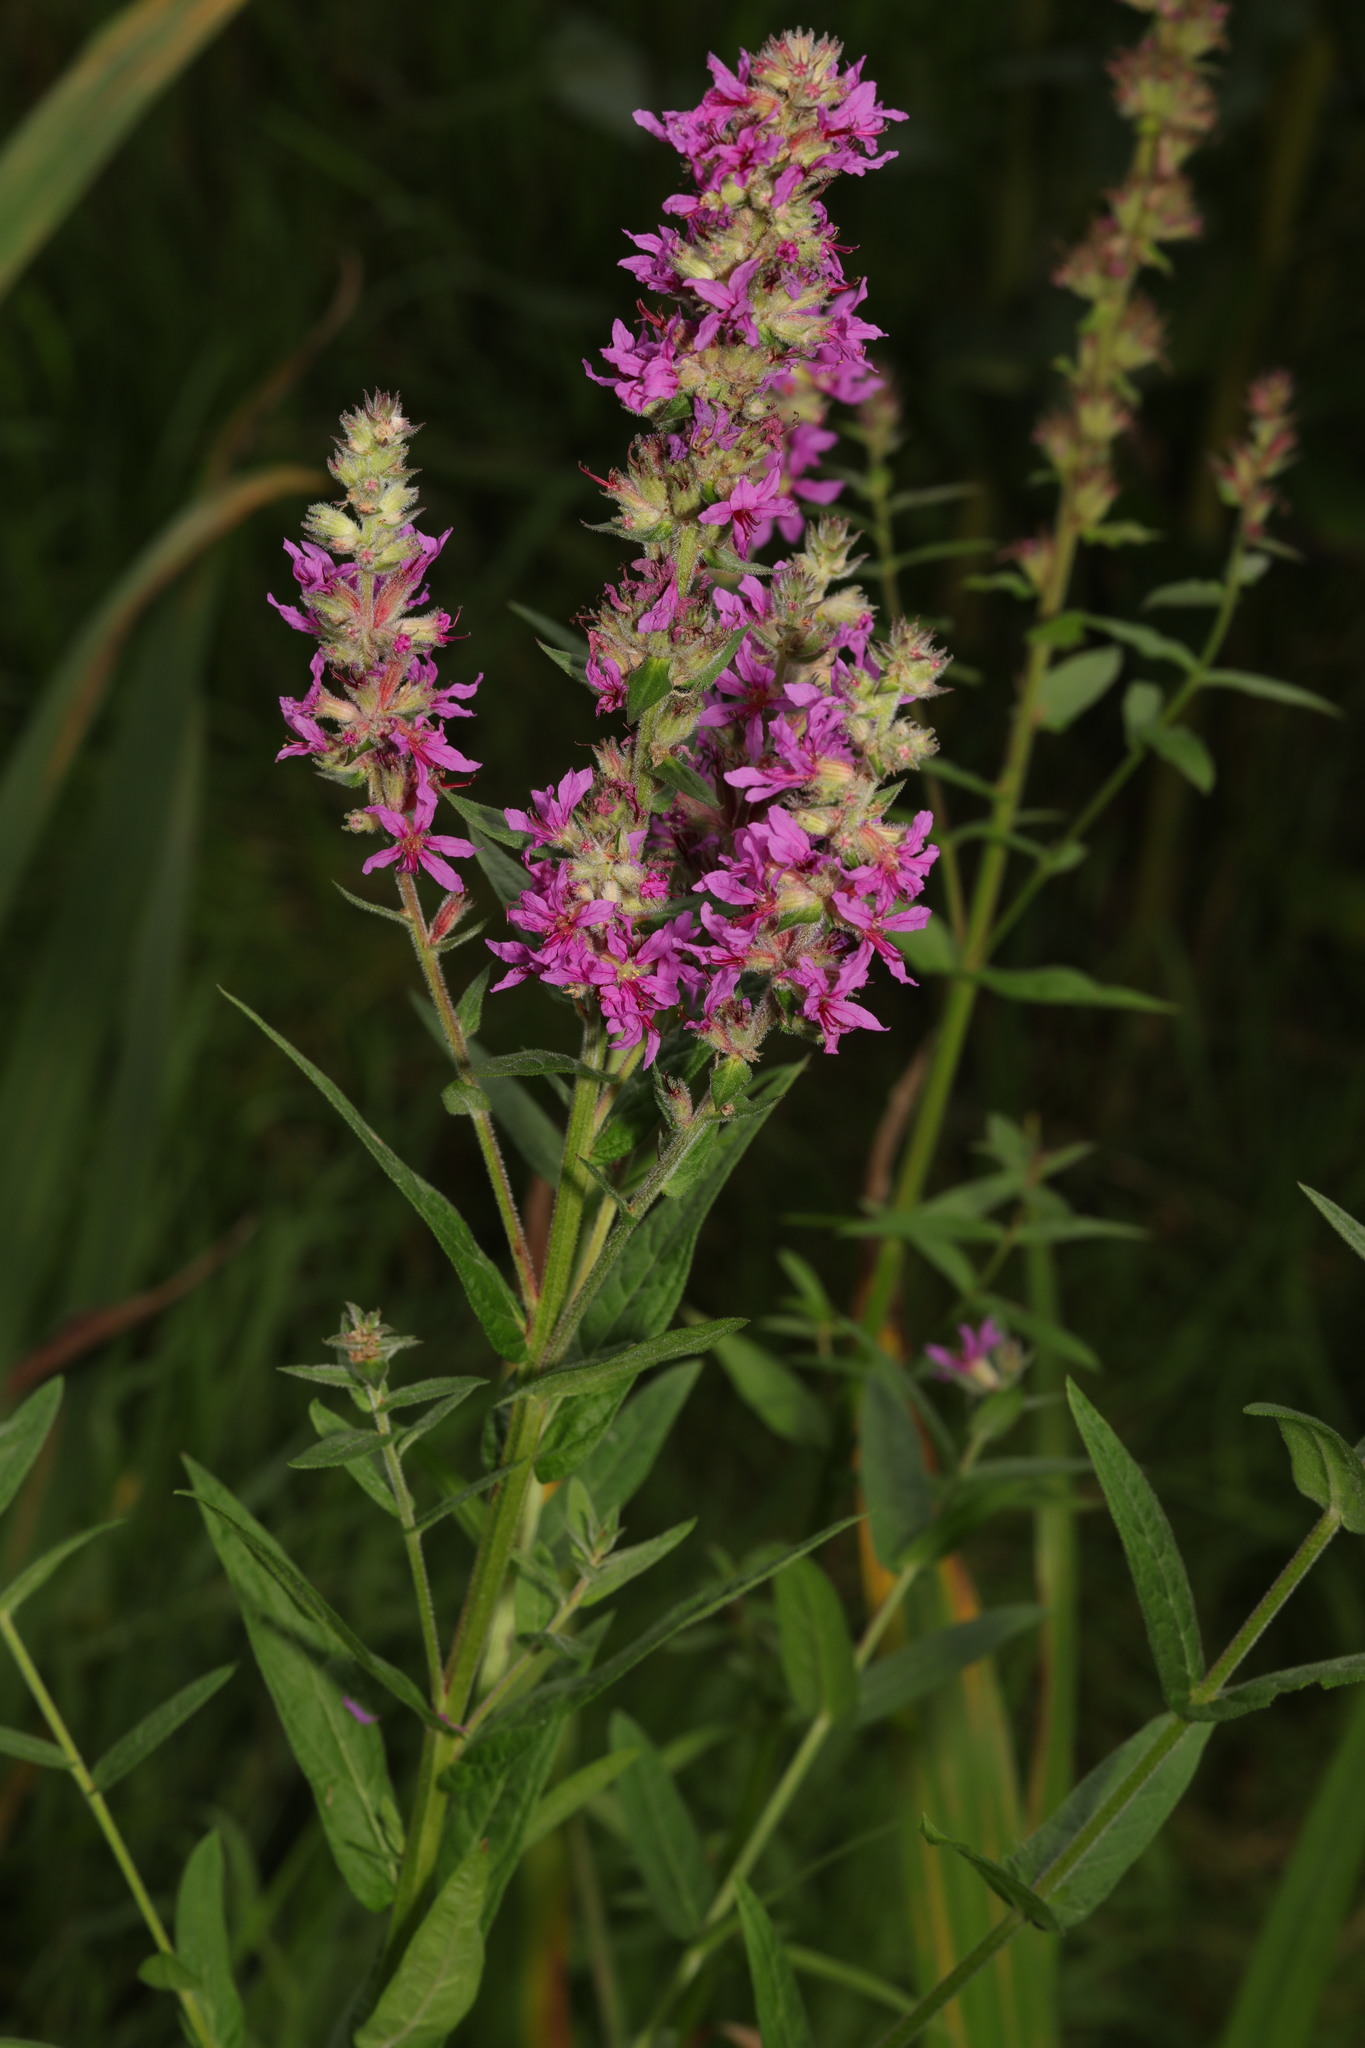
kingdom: Plantae
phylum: Tracheophyta
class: Magnoliopsida
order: Myrtales
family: Lythraceae
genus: Lythrum
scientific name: Lythrum salicaria
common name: Purple loosestrife
